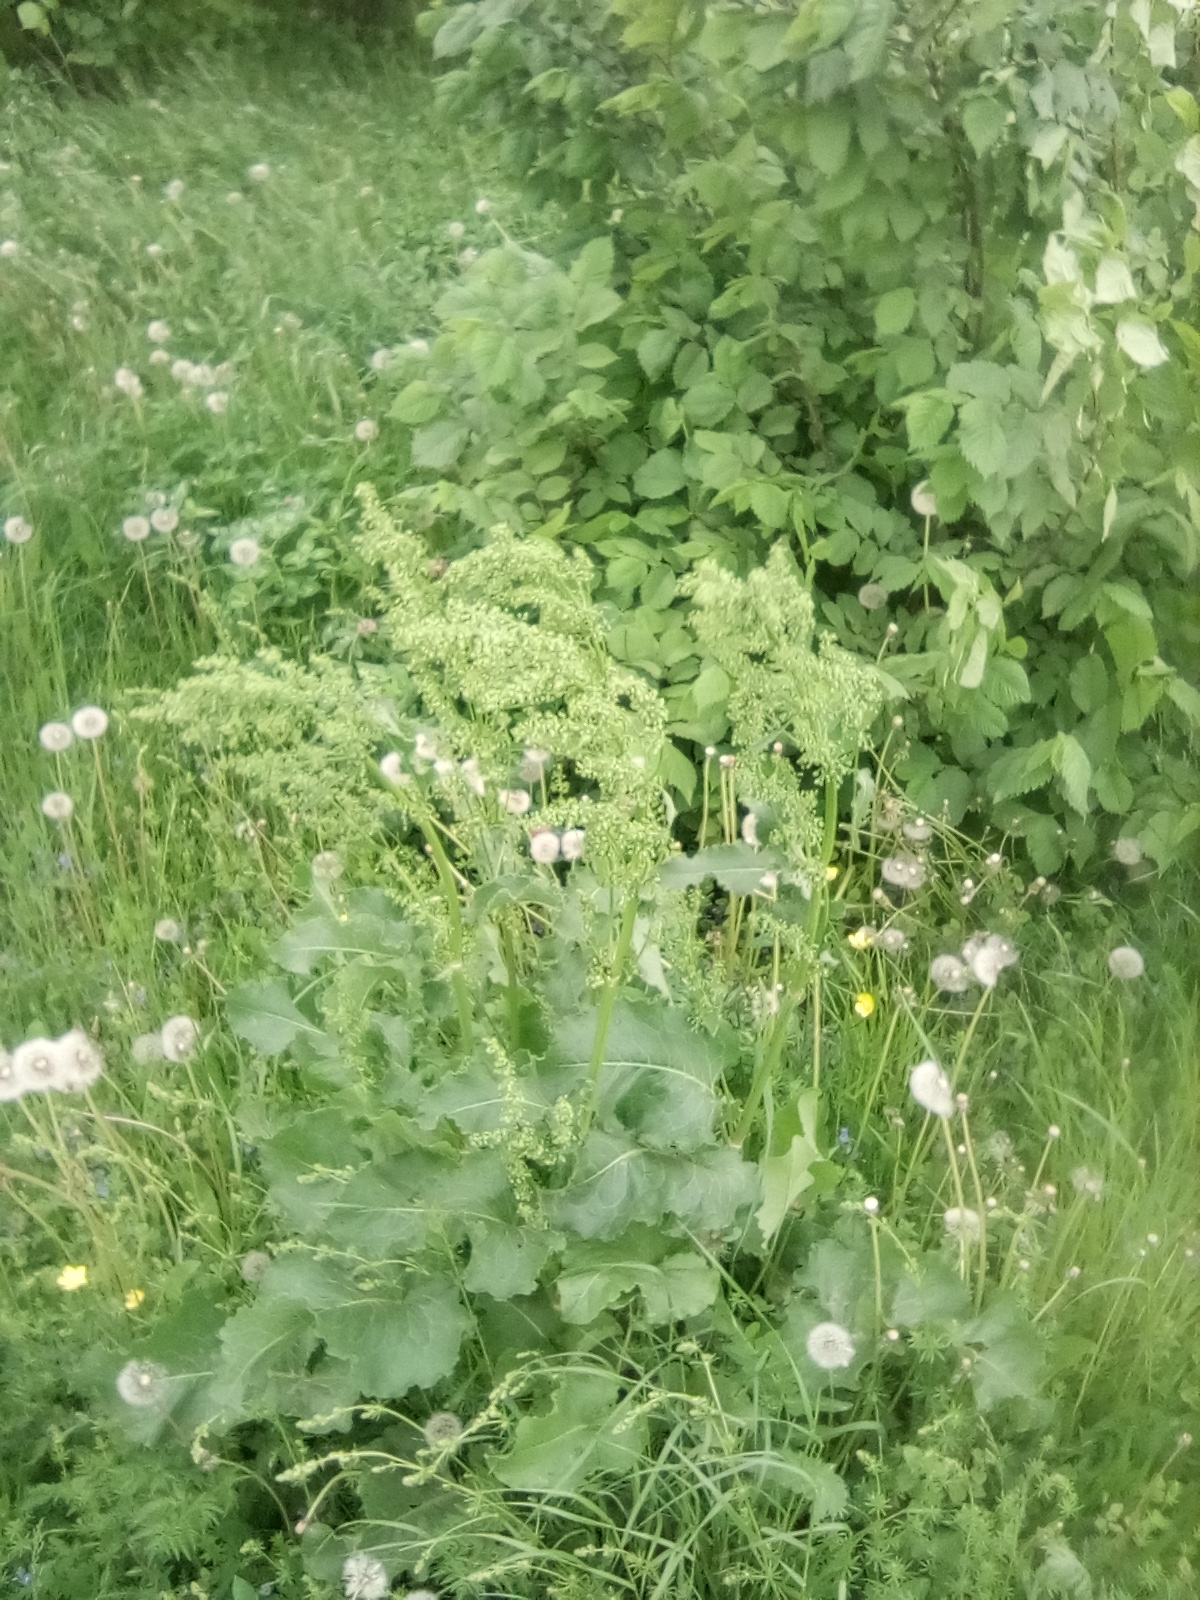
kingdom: Plantae
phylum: Tracheophyta
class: Magnoliopsida
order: Caryophyllales
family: Polygonaceae
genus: Rumex
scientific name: Rumex confertus
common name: Russian dock
